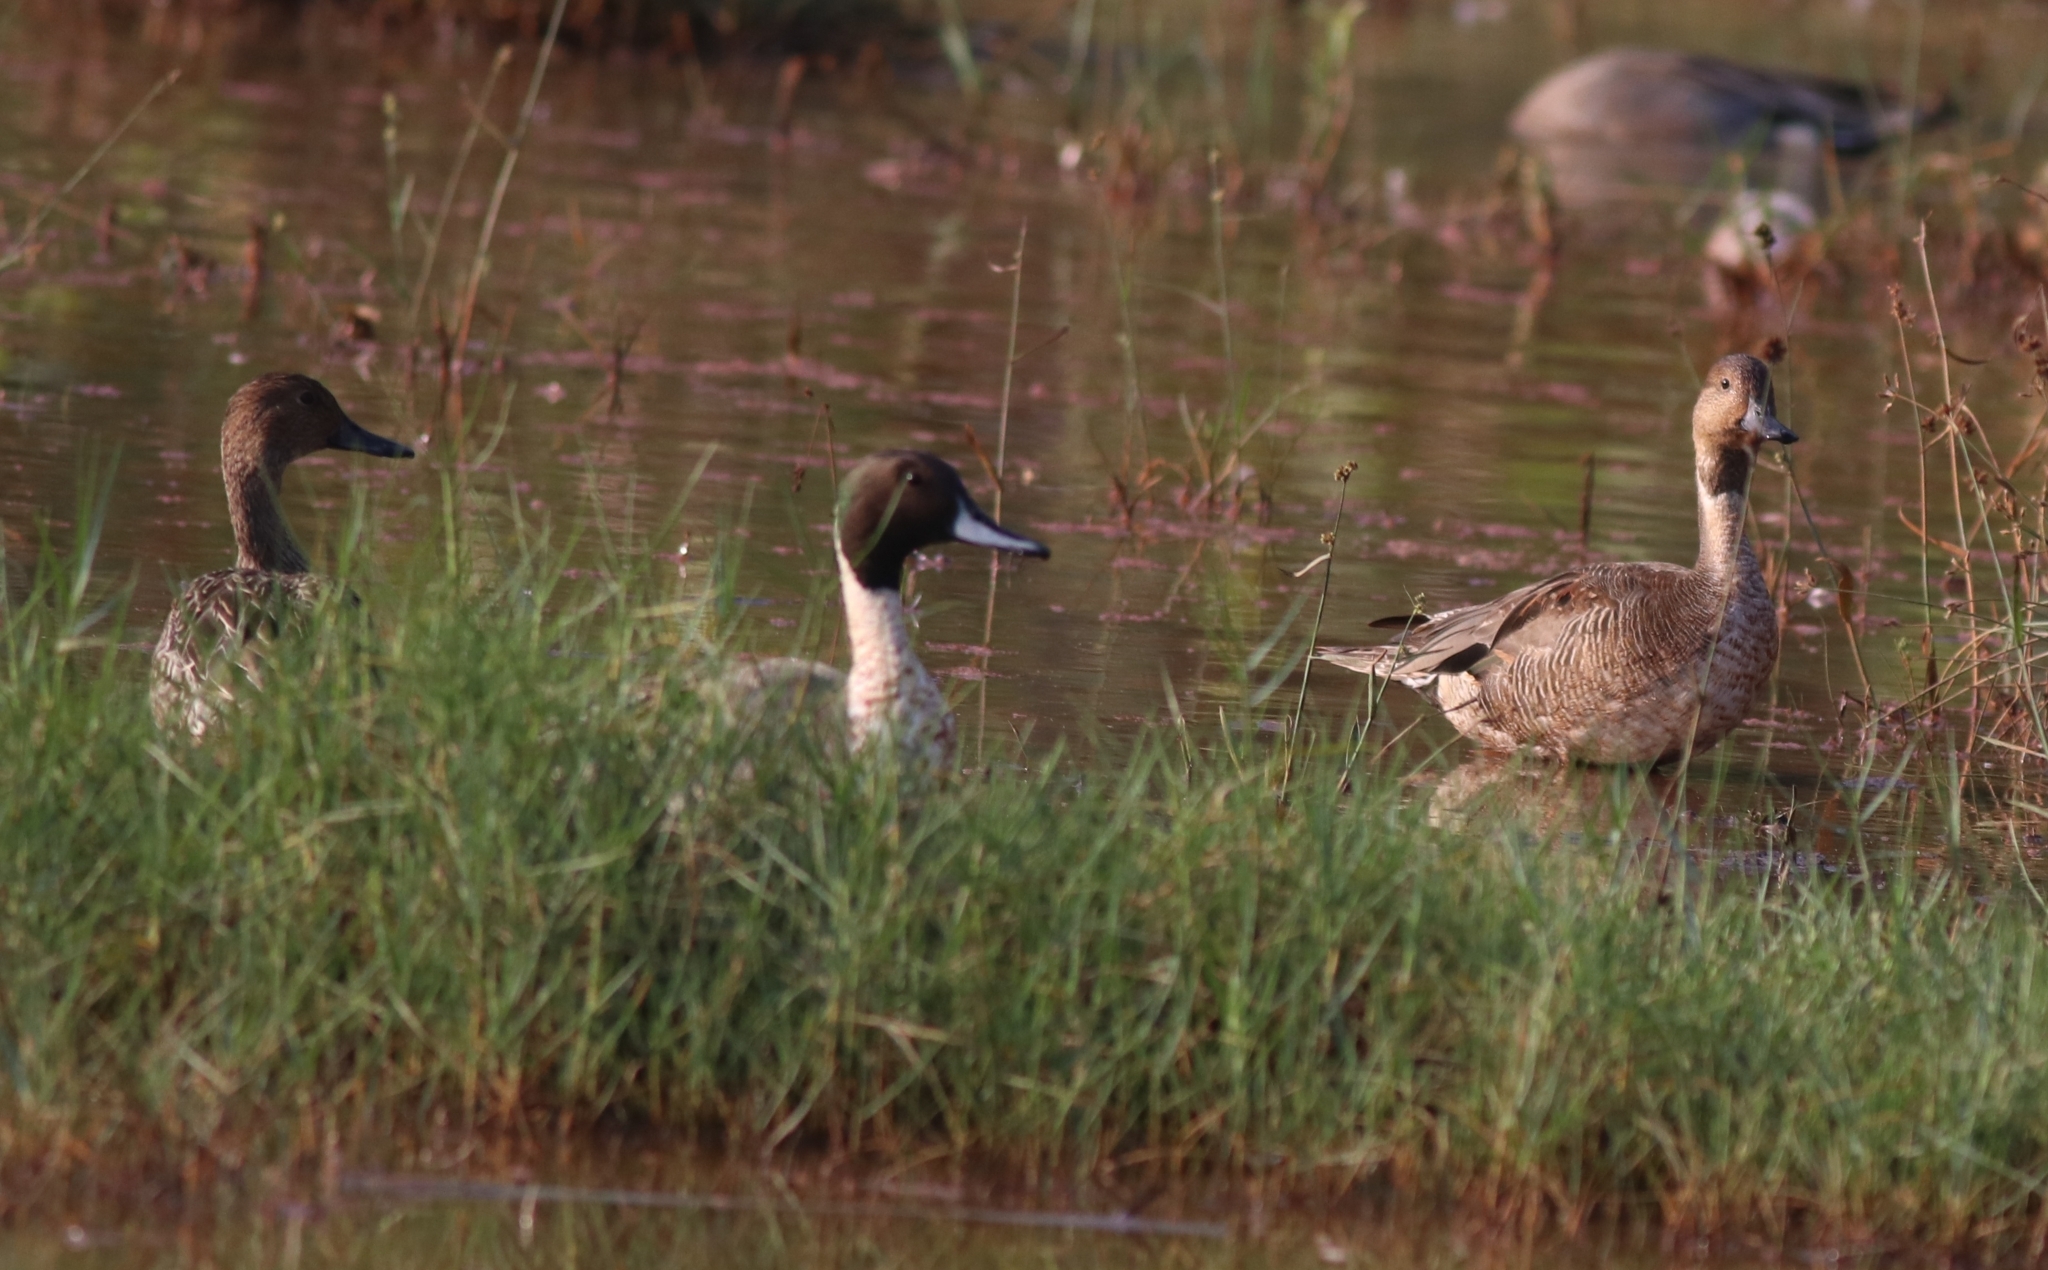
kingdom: Animalia
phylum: Chordata
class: Aves
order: Anseriformes
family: Anatidae
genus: Anas
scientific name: Anas acuta
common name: Northern pintail
